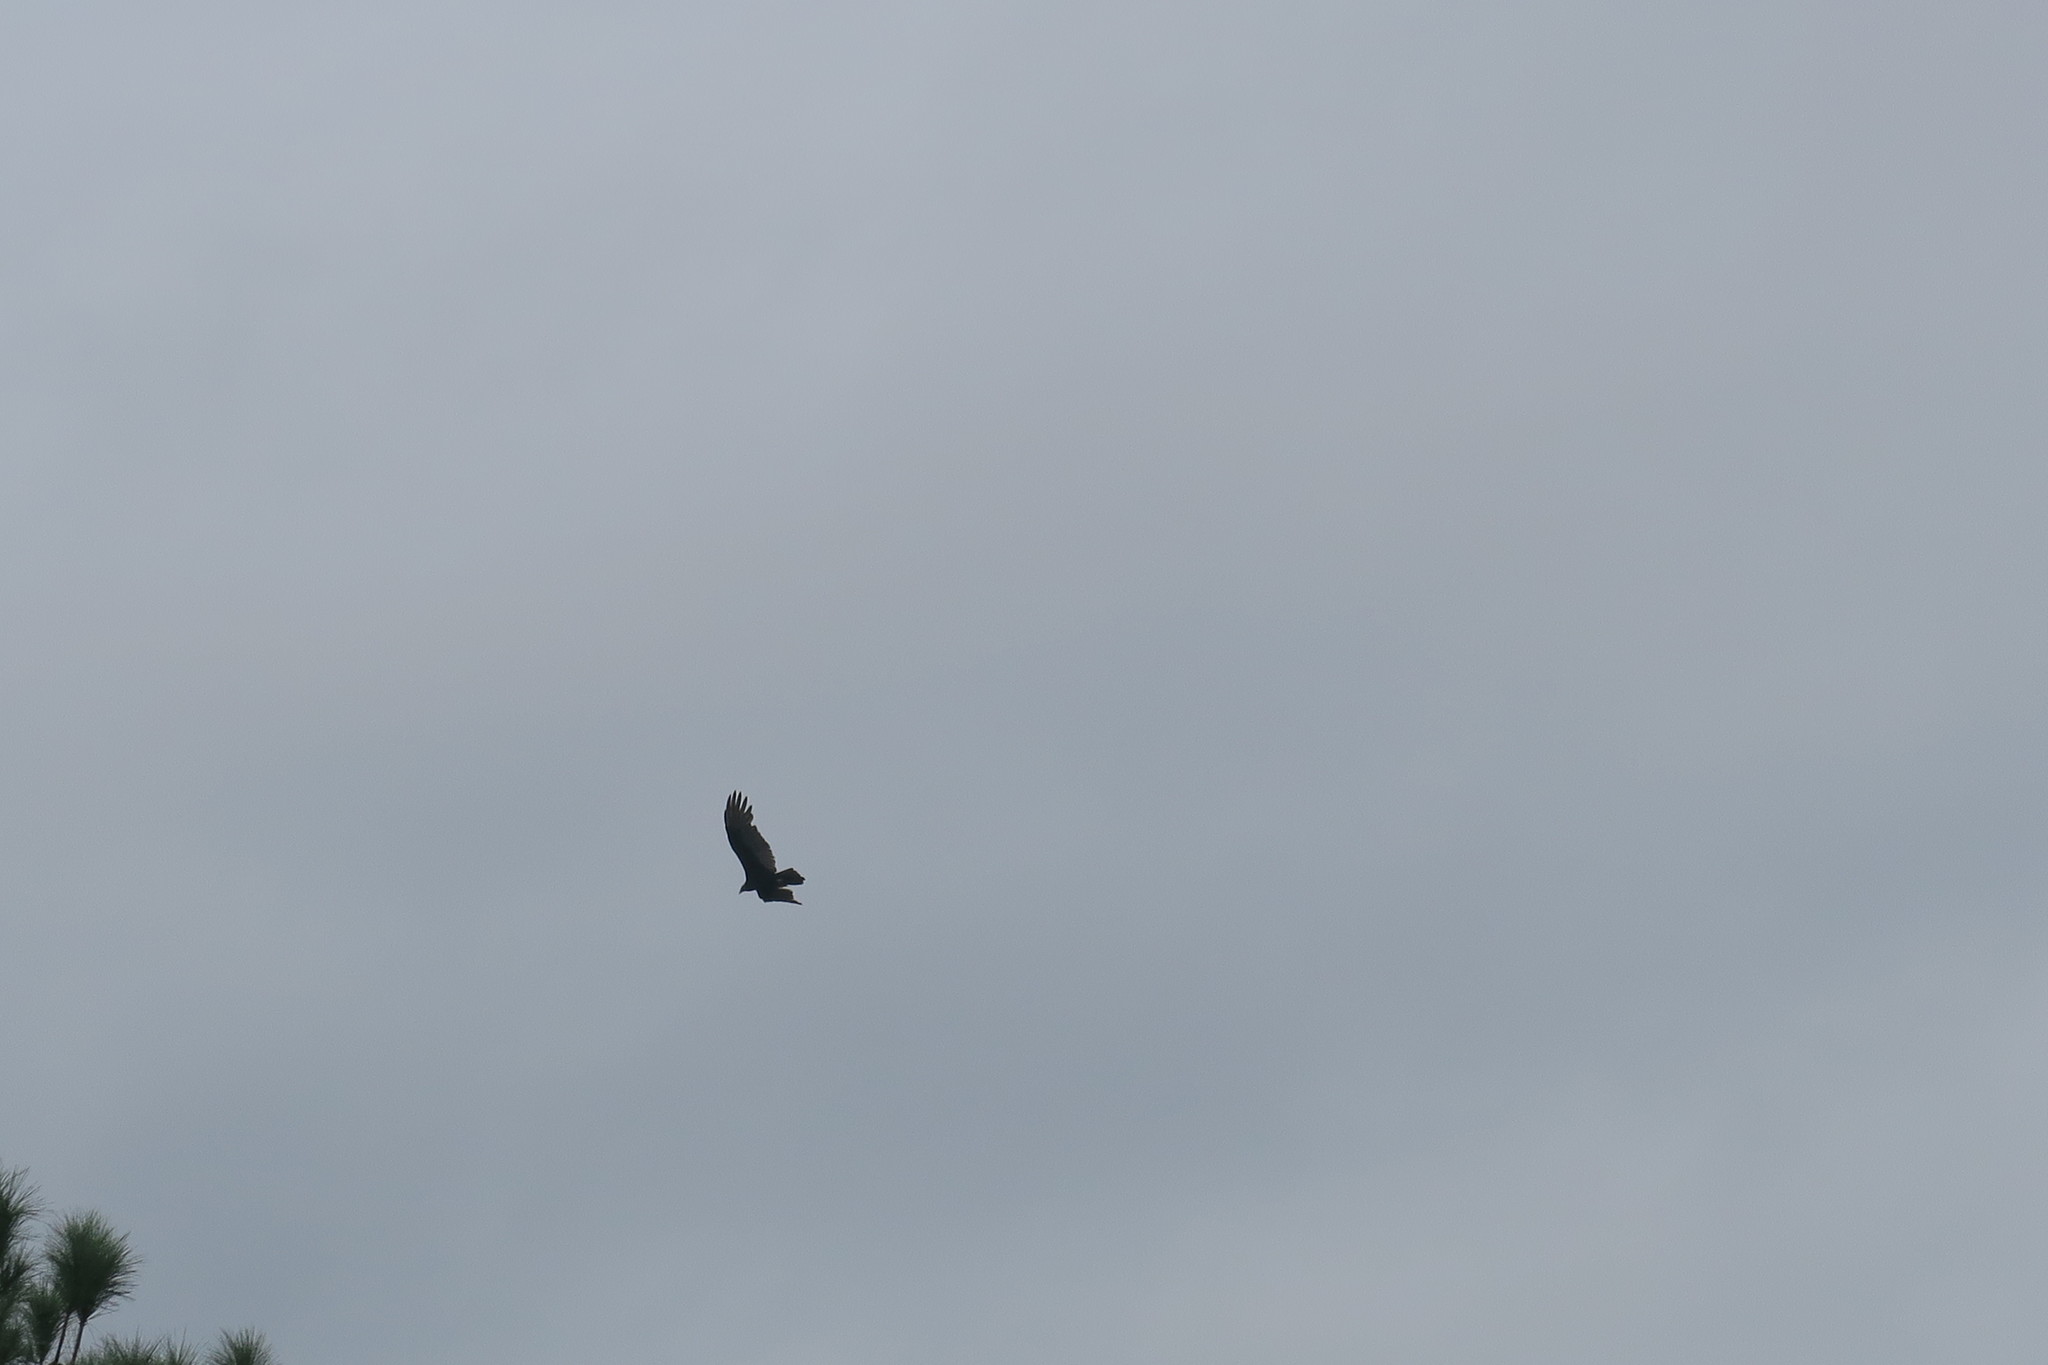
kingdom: Animalia
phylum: Chordata
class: Aves
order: Accipitriformes
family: Cathartidae
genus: Cathartes
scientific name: Cathartes aura
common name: Turkey vulture
